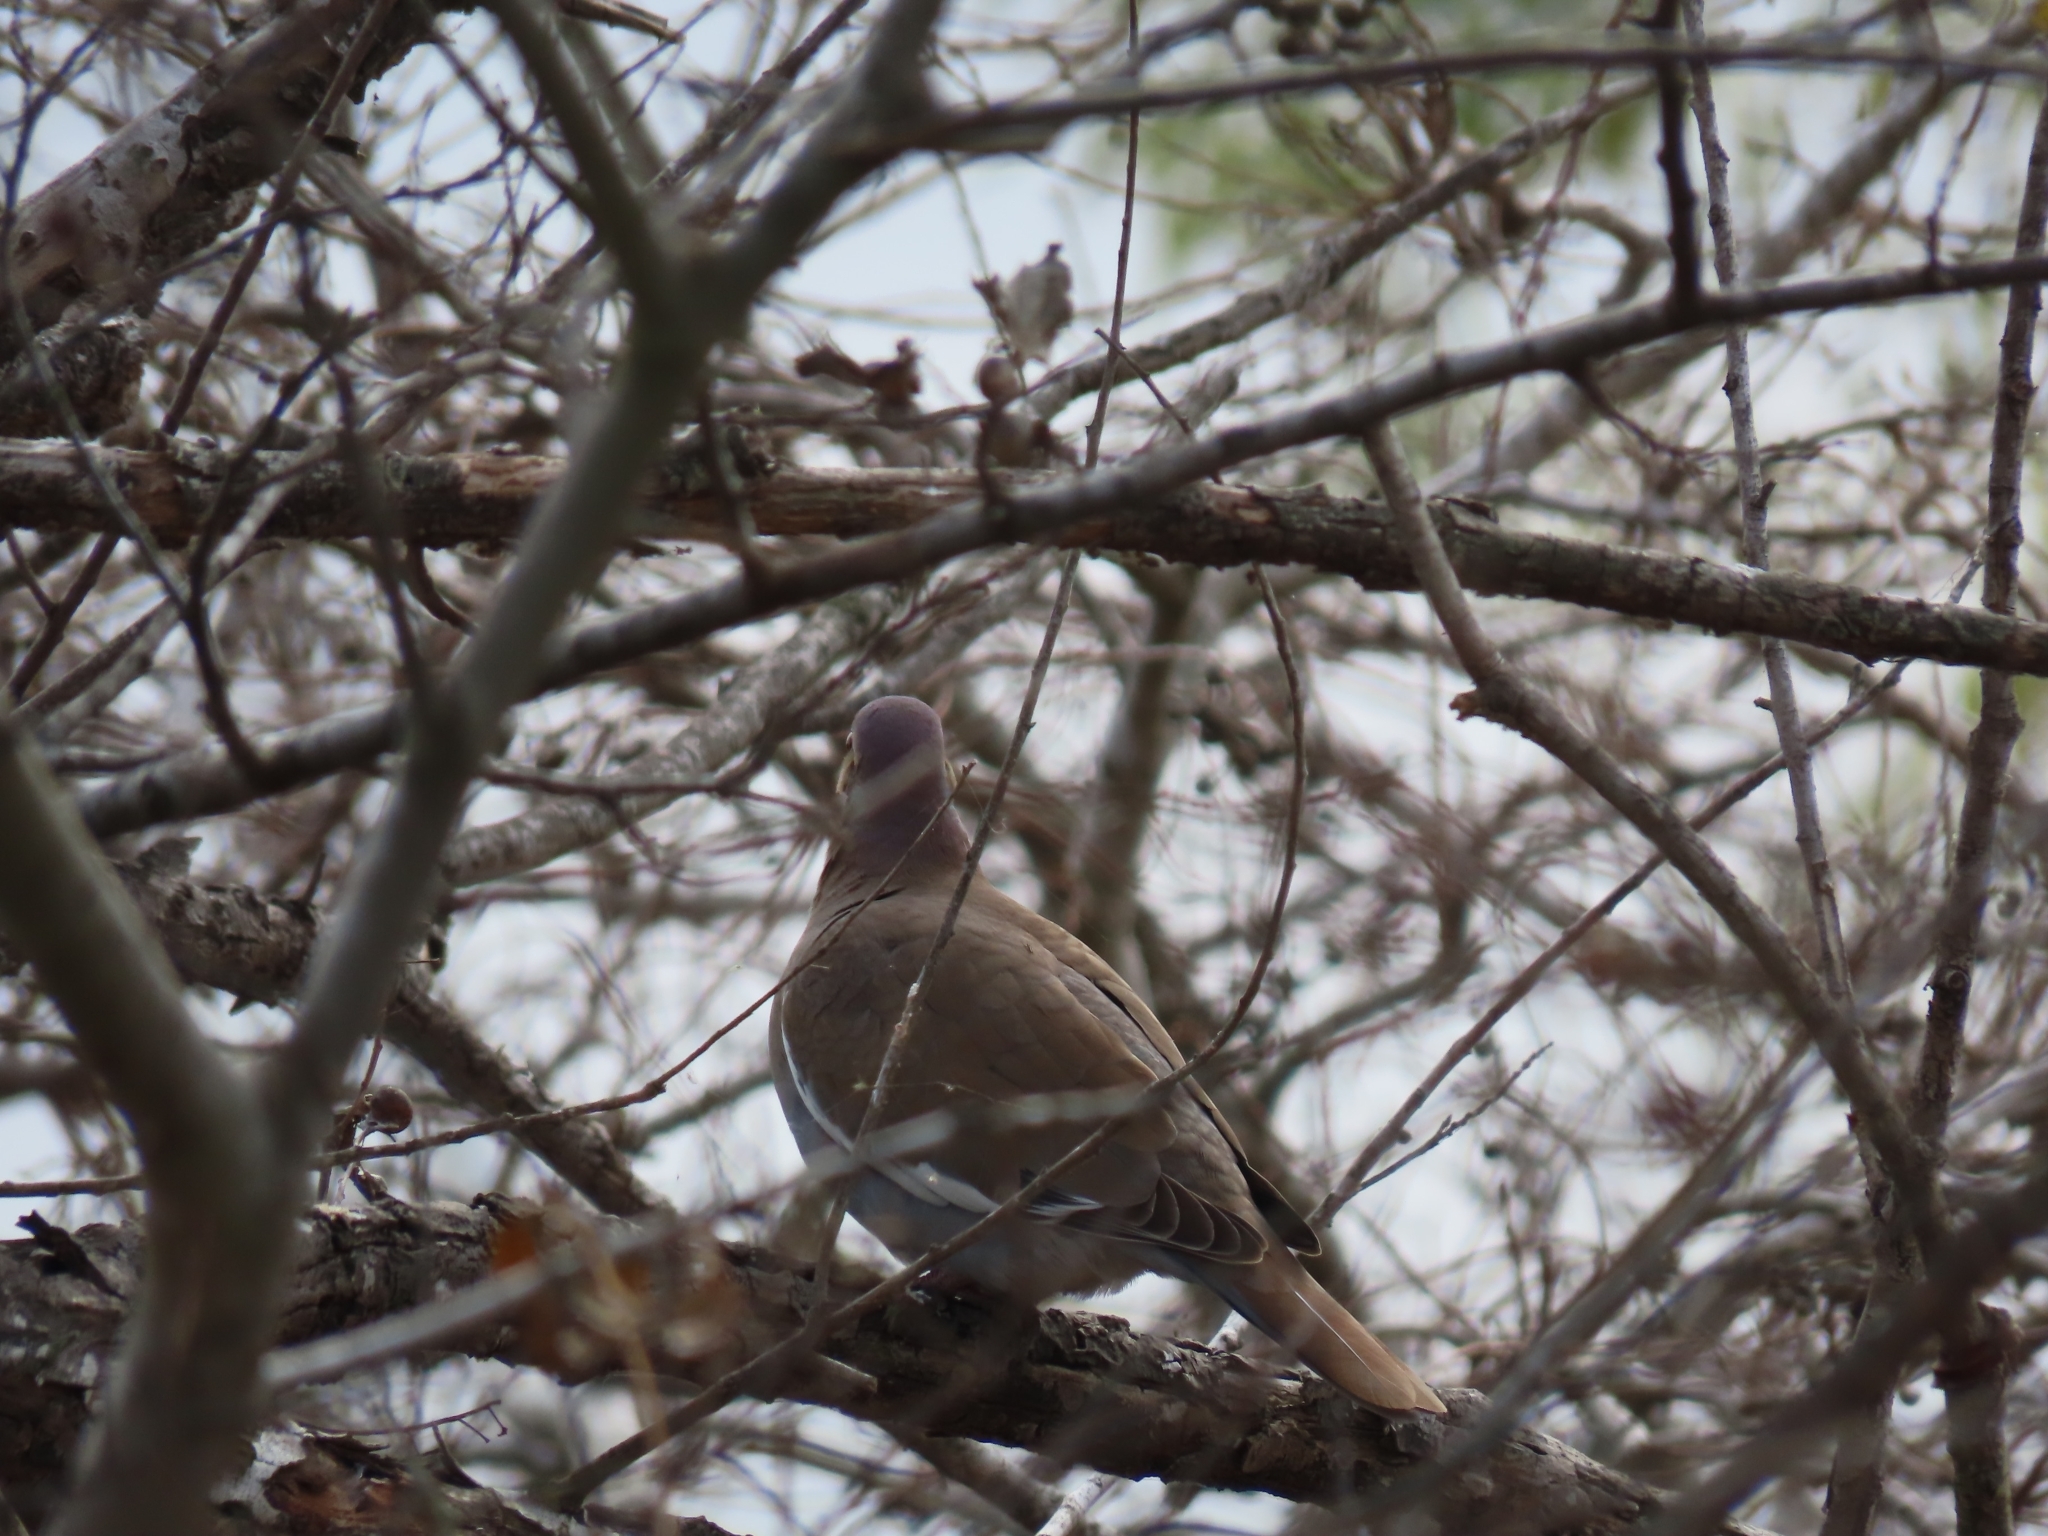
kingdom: Animalia
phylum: Chordata
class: Aves
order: Columbiformes
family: Columbidae
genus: Zenaida
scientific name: Zenaida asiatica
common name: White-winged dove
